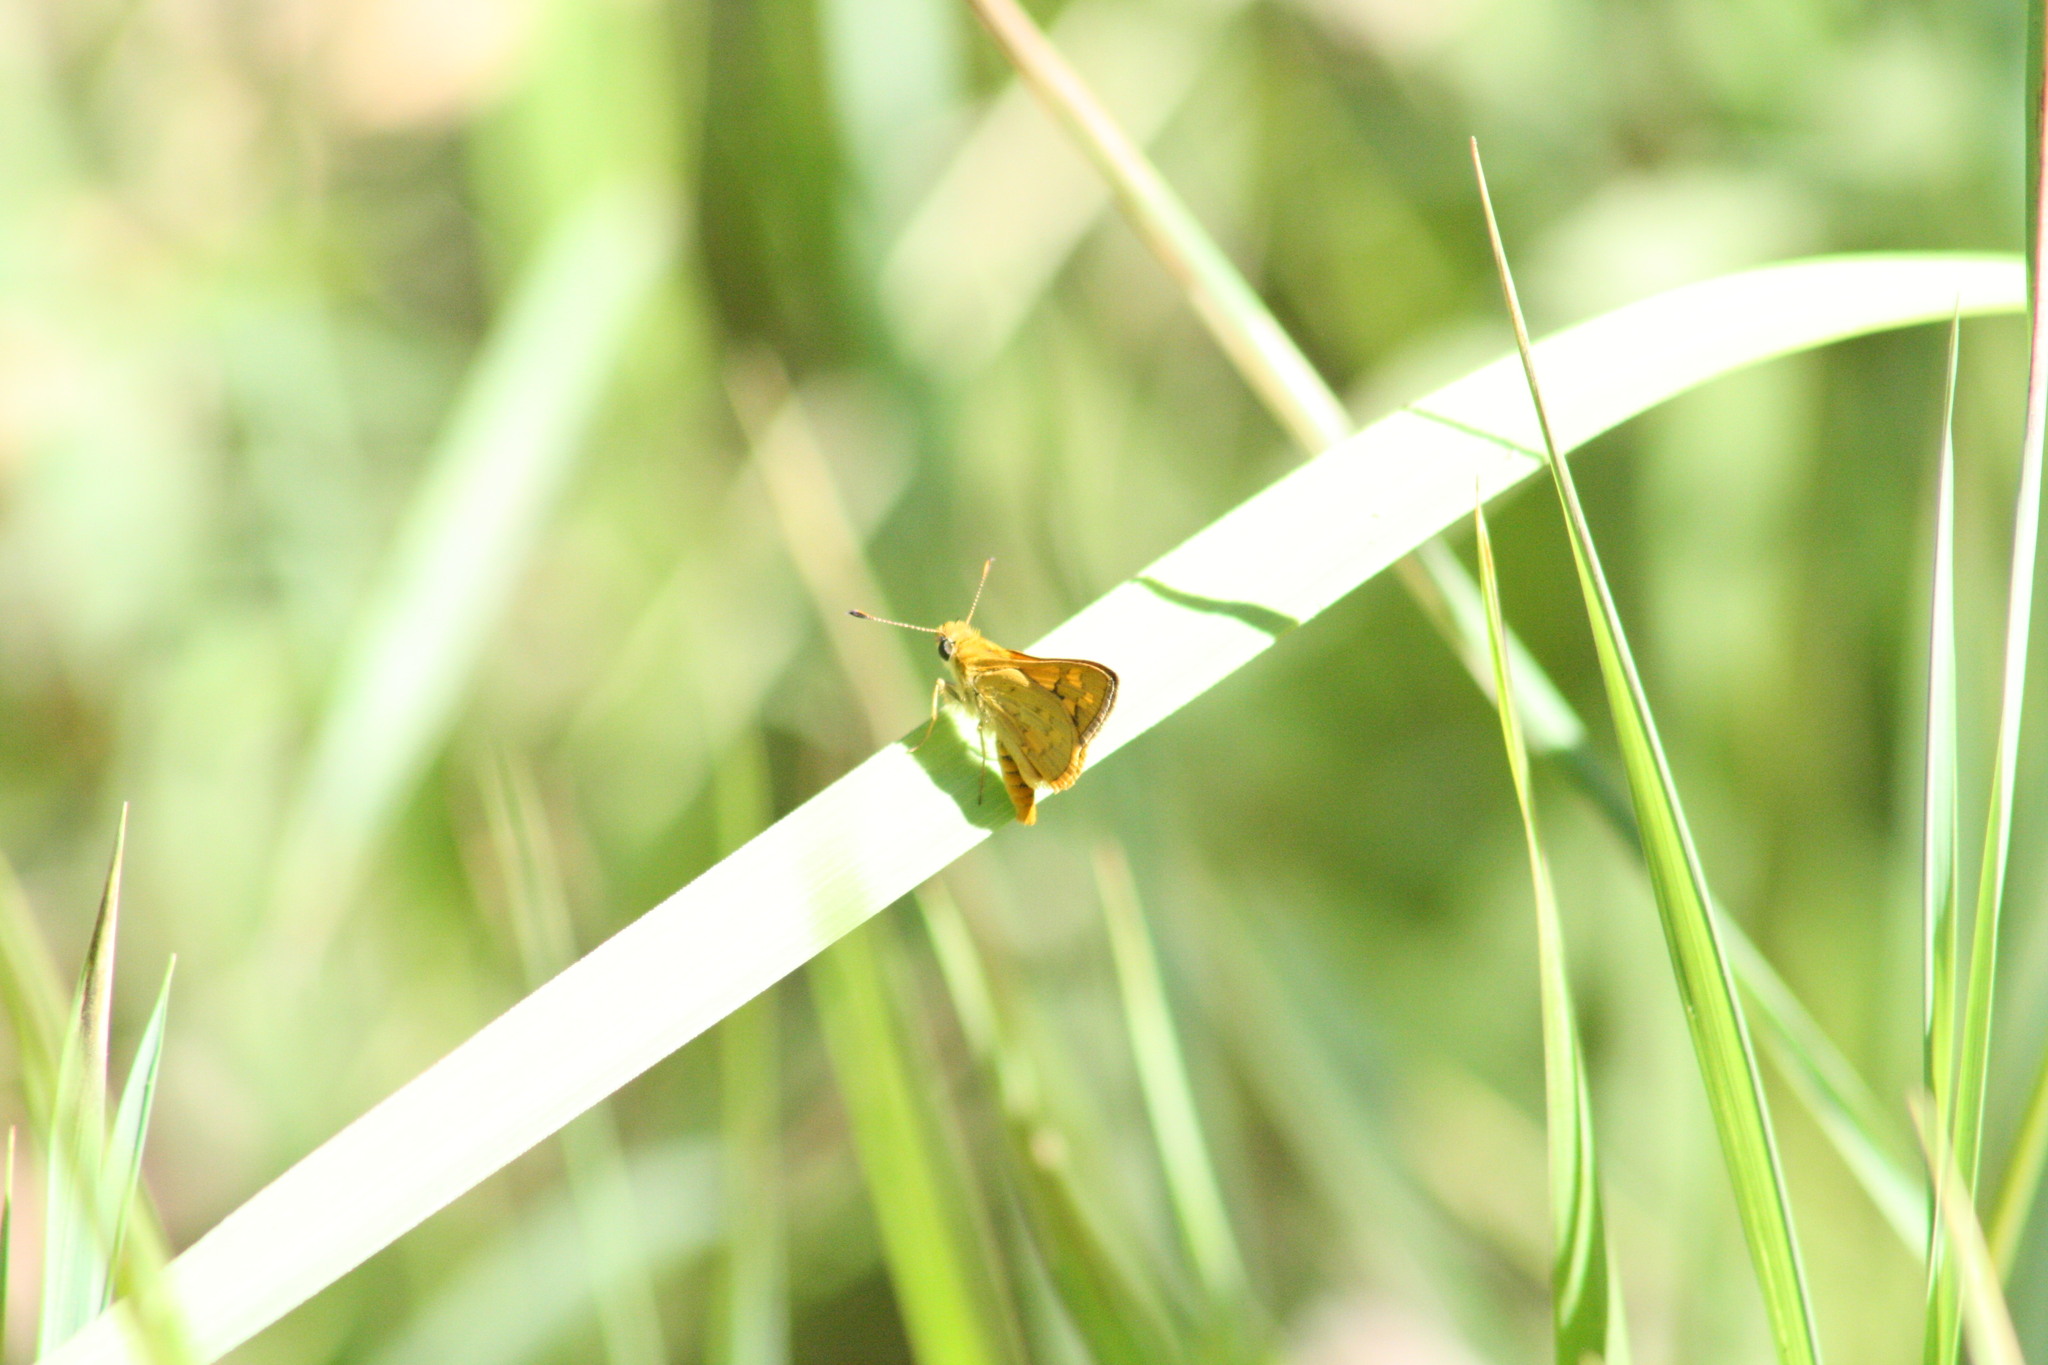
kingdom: Animalia
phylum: Arthropoda
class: Insecta
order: Lepidoptera
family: Hesperiidae
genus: Ocybadistes
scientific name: Ocybadistes walkeri
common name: Yellow-banded dart
